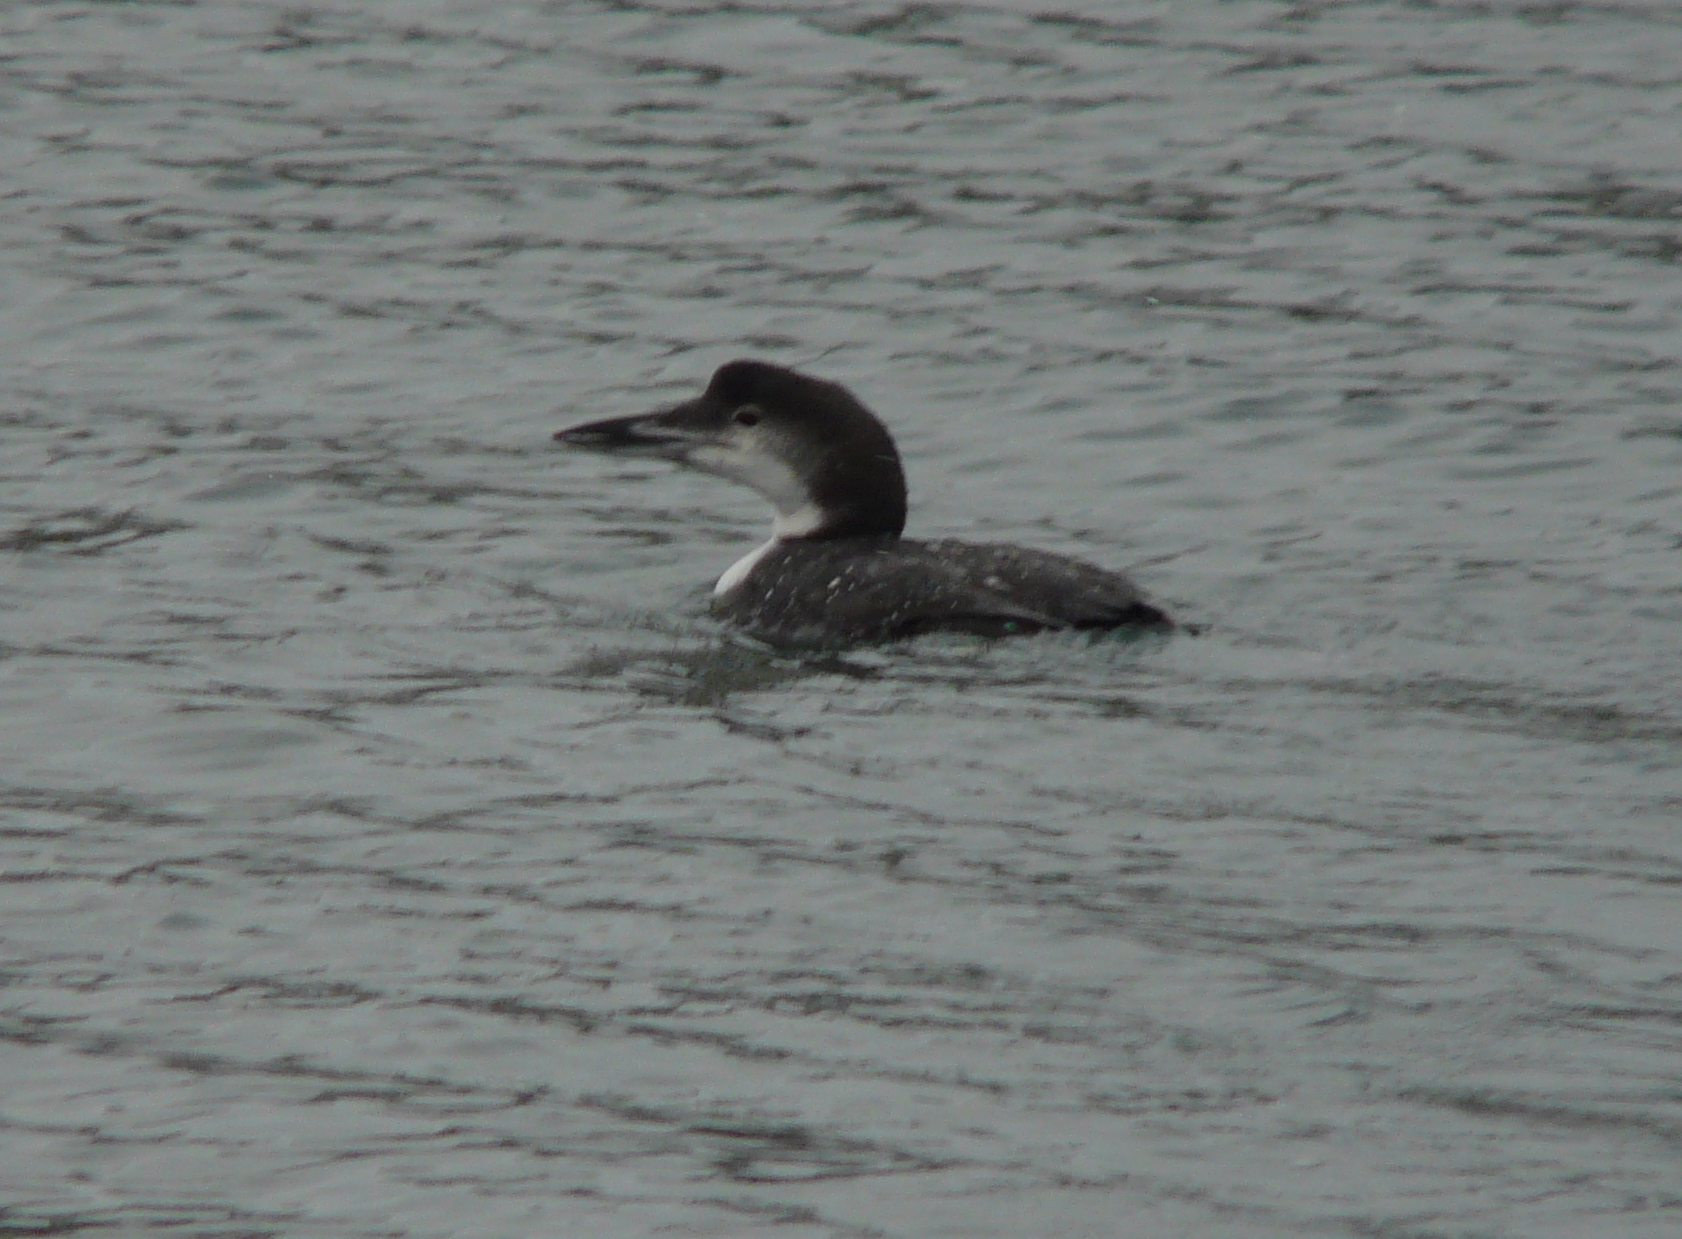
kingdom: Animalia
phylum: Chordata
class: Aves
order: Gaviiformes
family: Gaviidae
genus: Gavia
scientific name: Gavia immer
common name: Common loon
